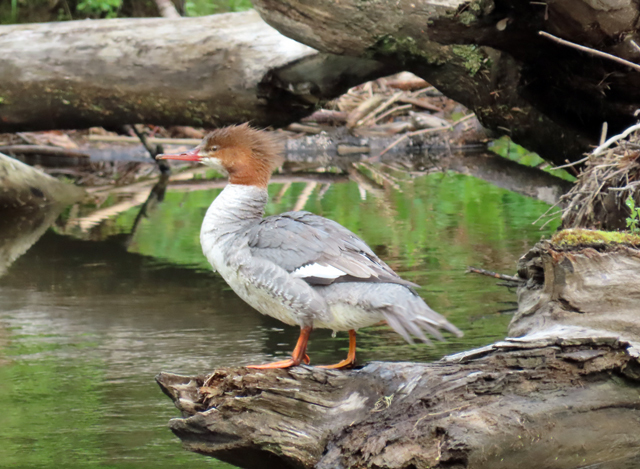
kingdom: Animalia
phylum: Chordata
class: Aves
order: Anseriformes
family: Anatidae
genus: Mergus
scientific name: Mergus merganser
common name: Common merganser
